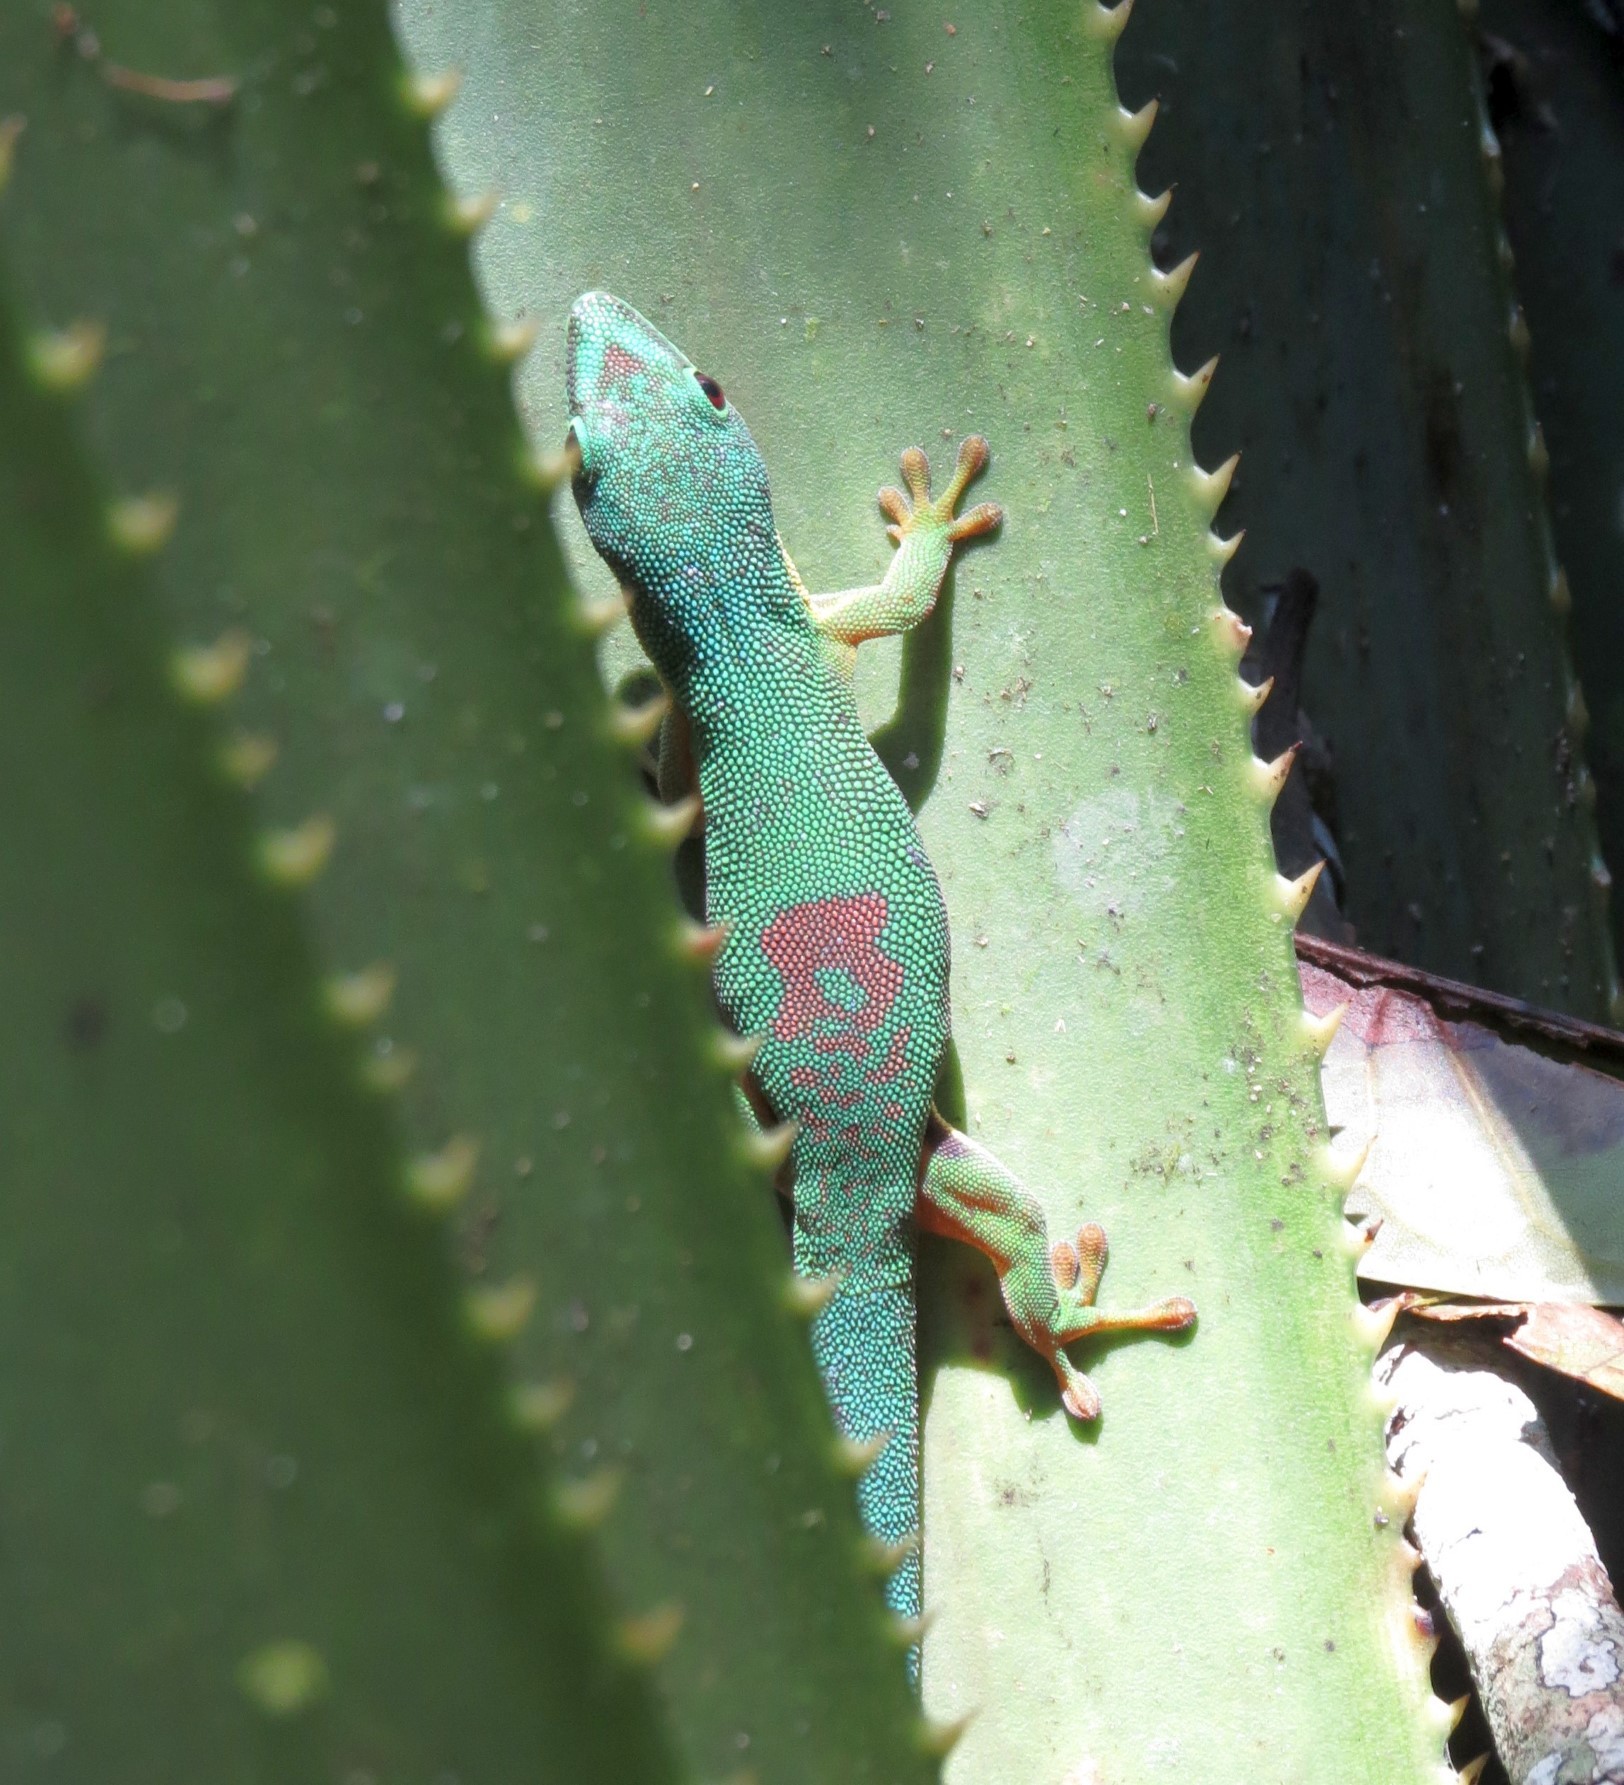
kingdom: Animalia
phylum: Chordata
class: Squamata
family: Gekkonidae
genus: Phelsuma
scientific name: Phelsuma lineata
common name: Lined day gecko
